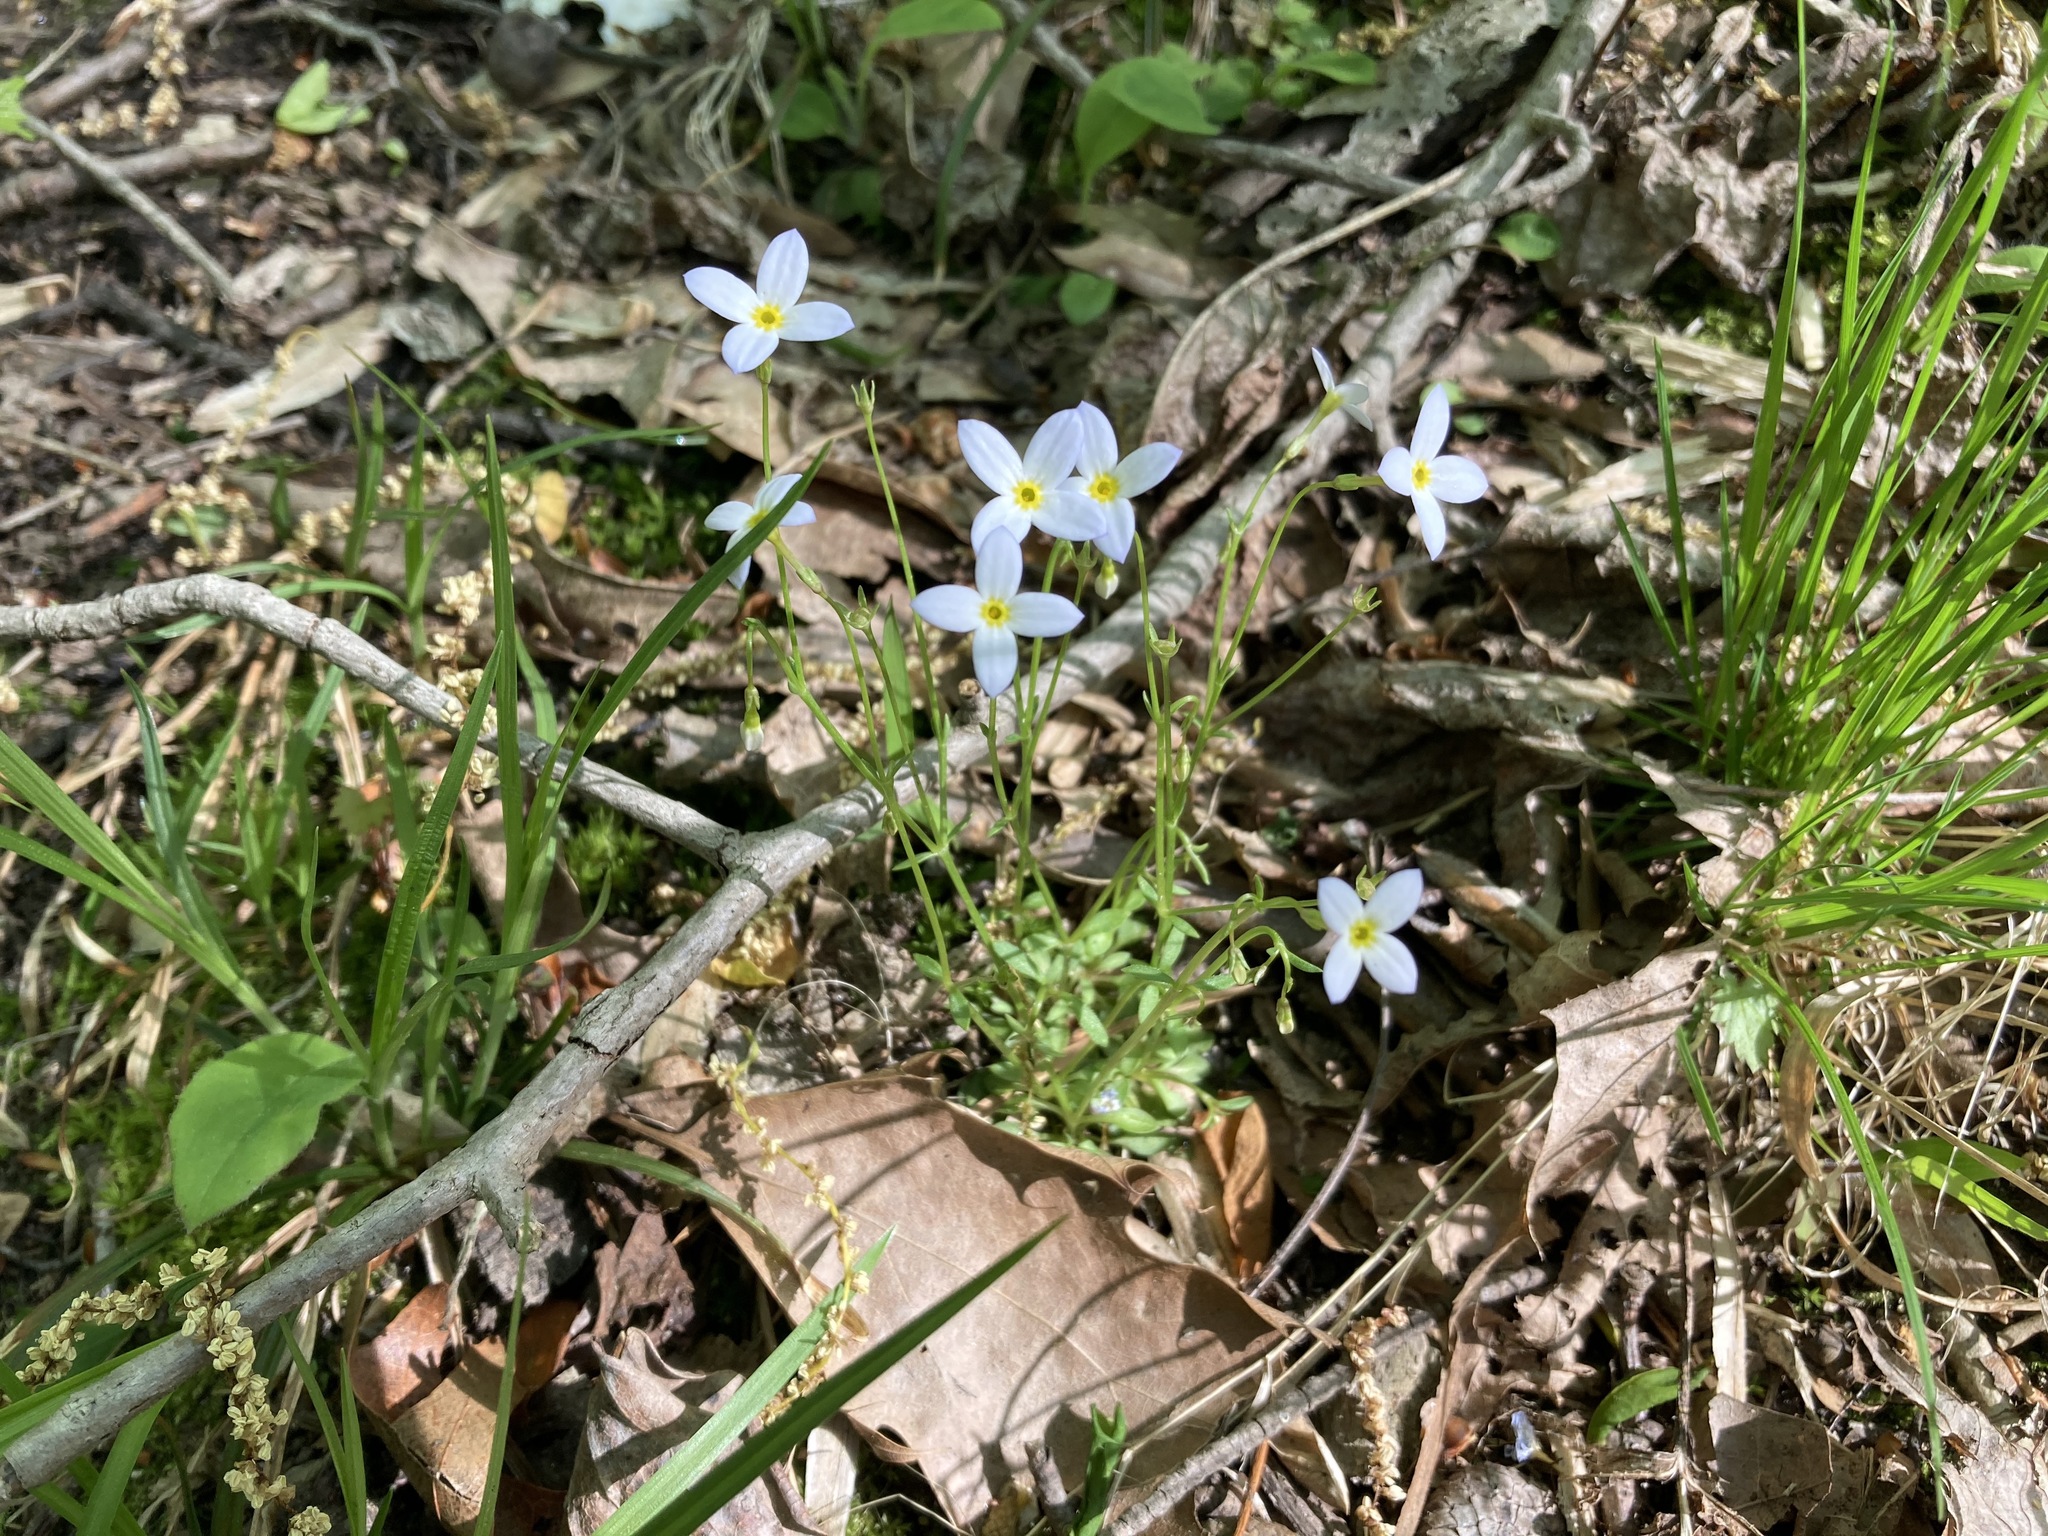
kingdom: Plantae
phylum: Tracheophyta
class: Magnoliopsida
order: Gentianales
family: Rubiaceae
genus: Houstonia
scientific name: Houstonia caerulea
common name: Bluets
